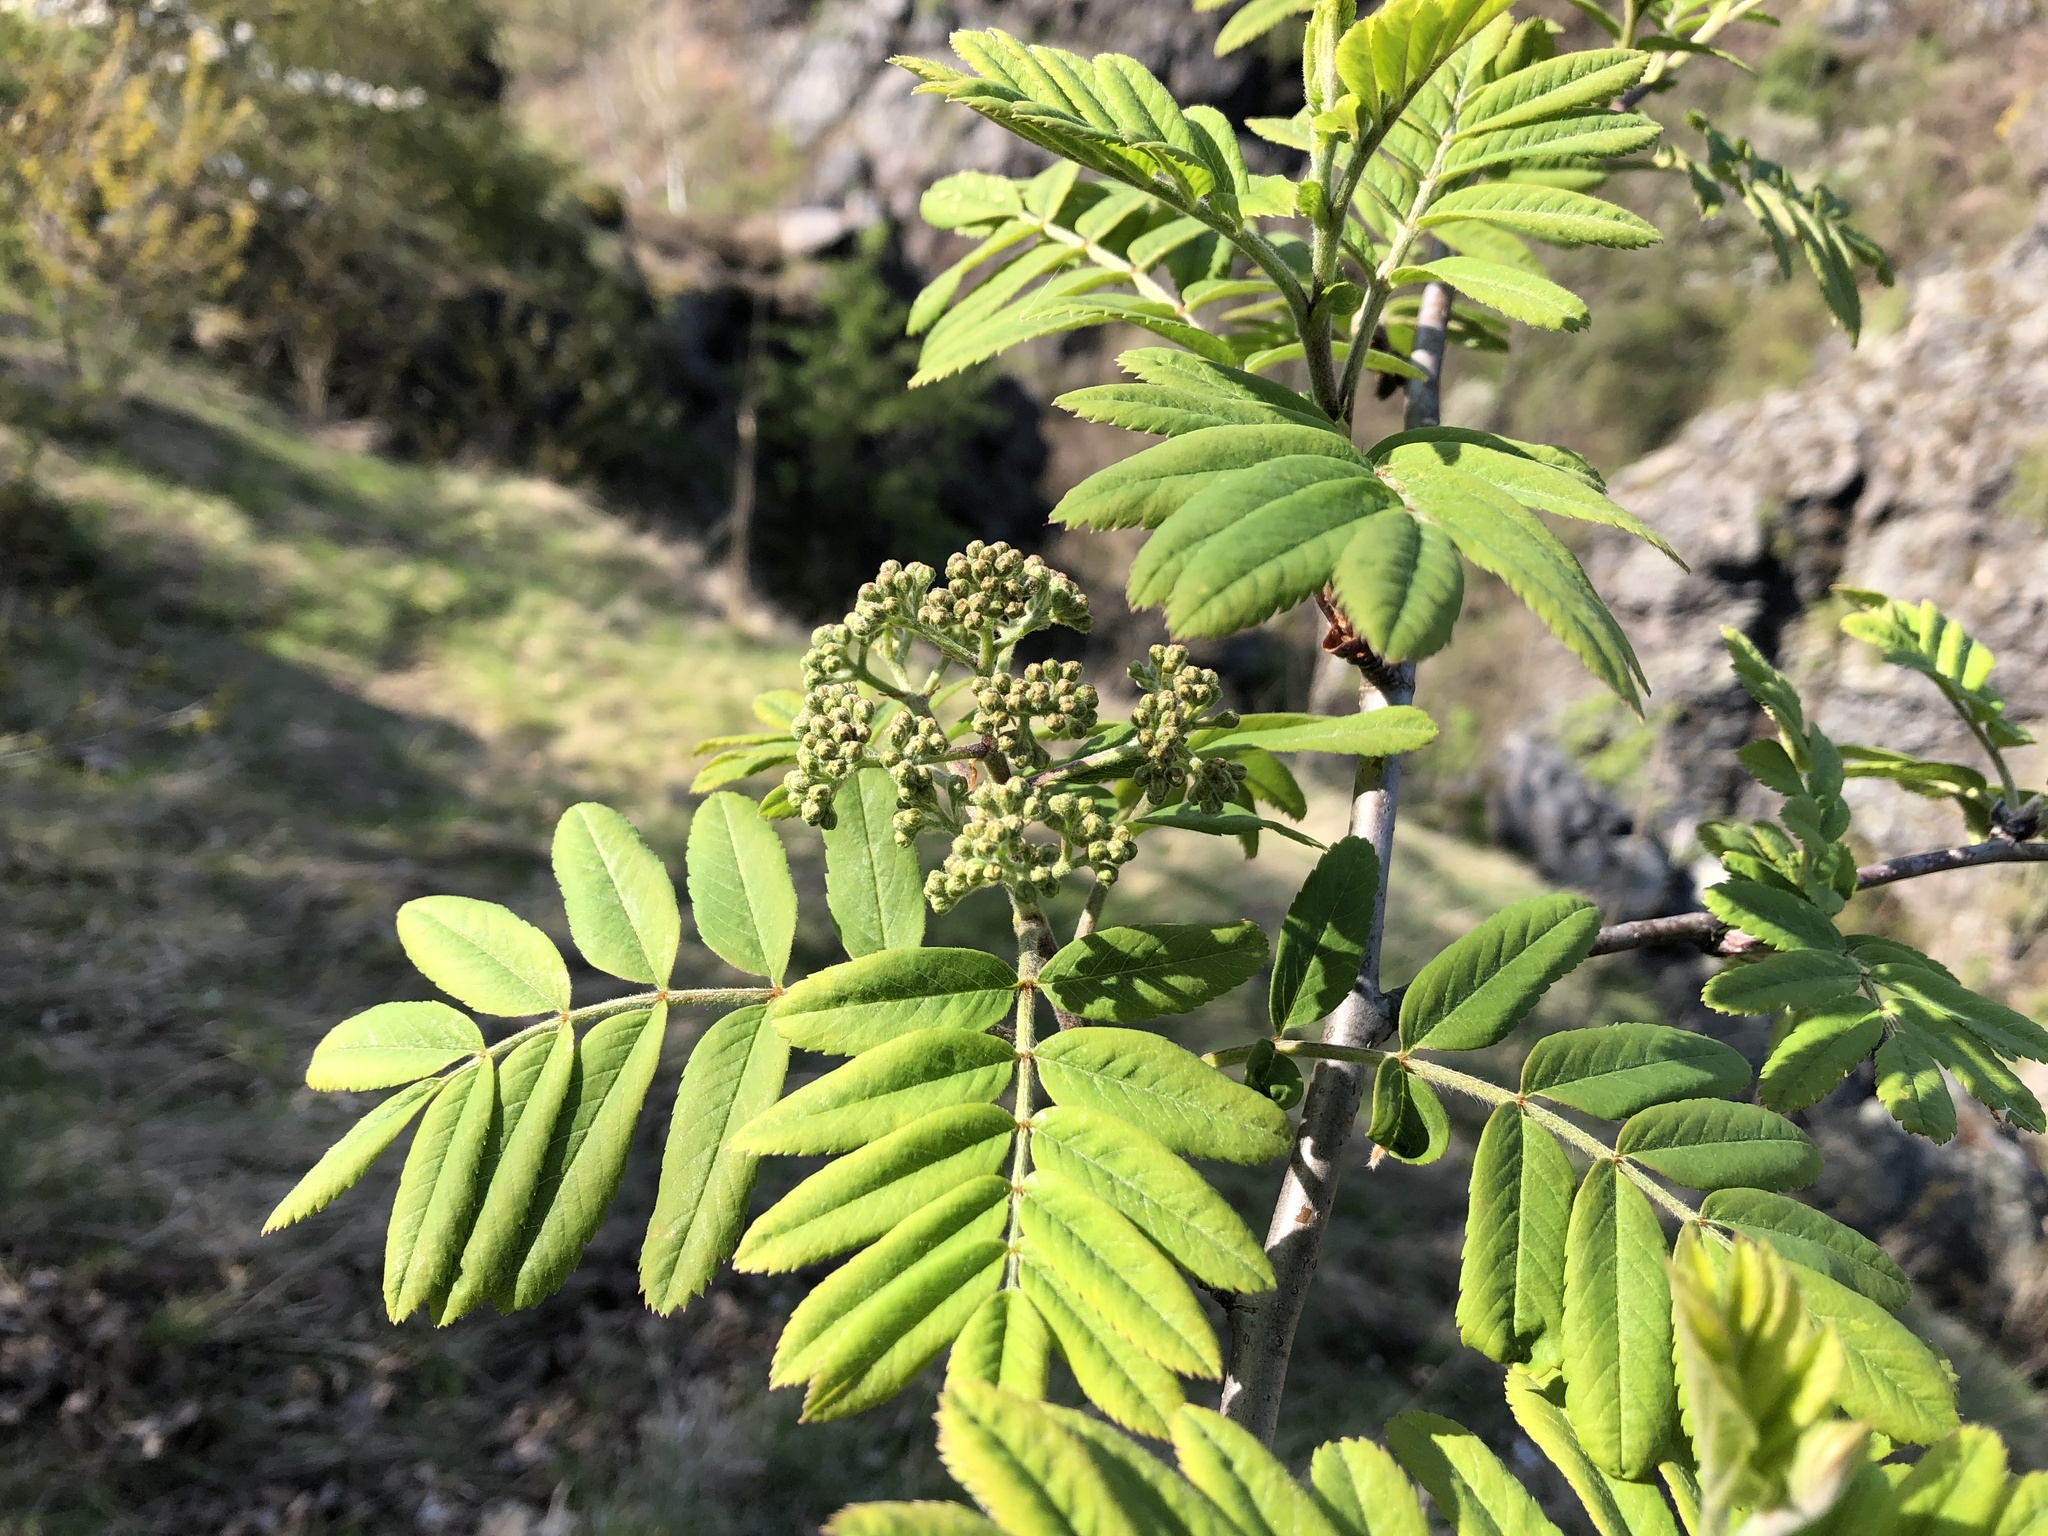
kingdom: Plantae
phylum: Tracheophyta
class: Magnoliopsida
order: Rosales
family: Rosaceae
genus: Sorbus
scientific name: Sorbus aucuparia
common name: Rowan
